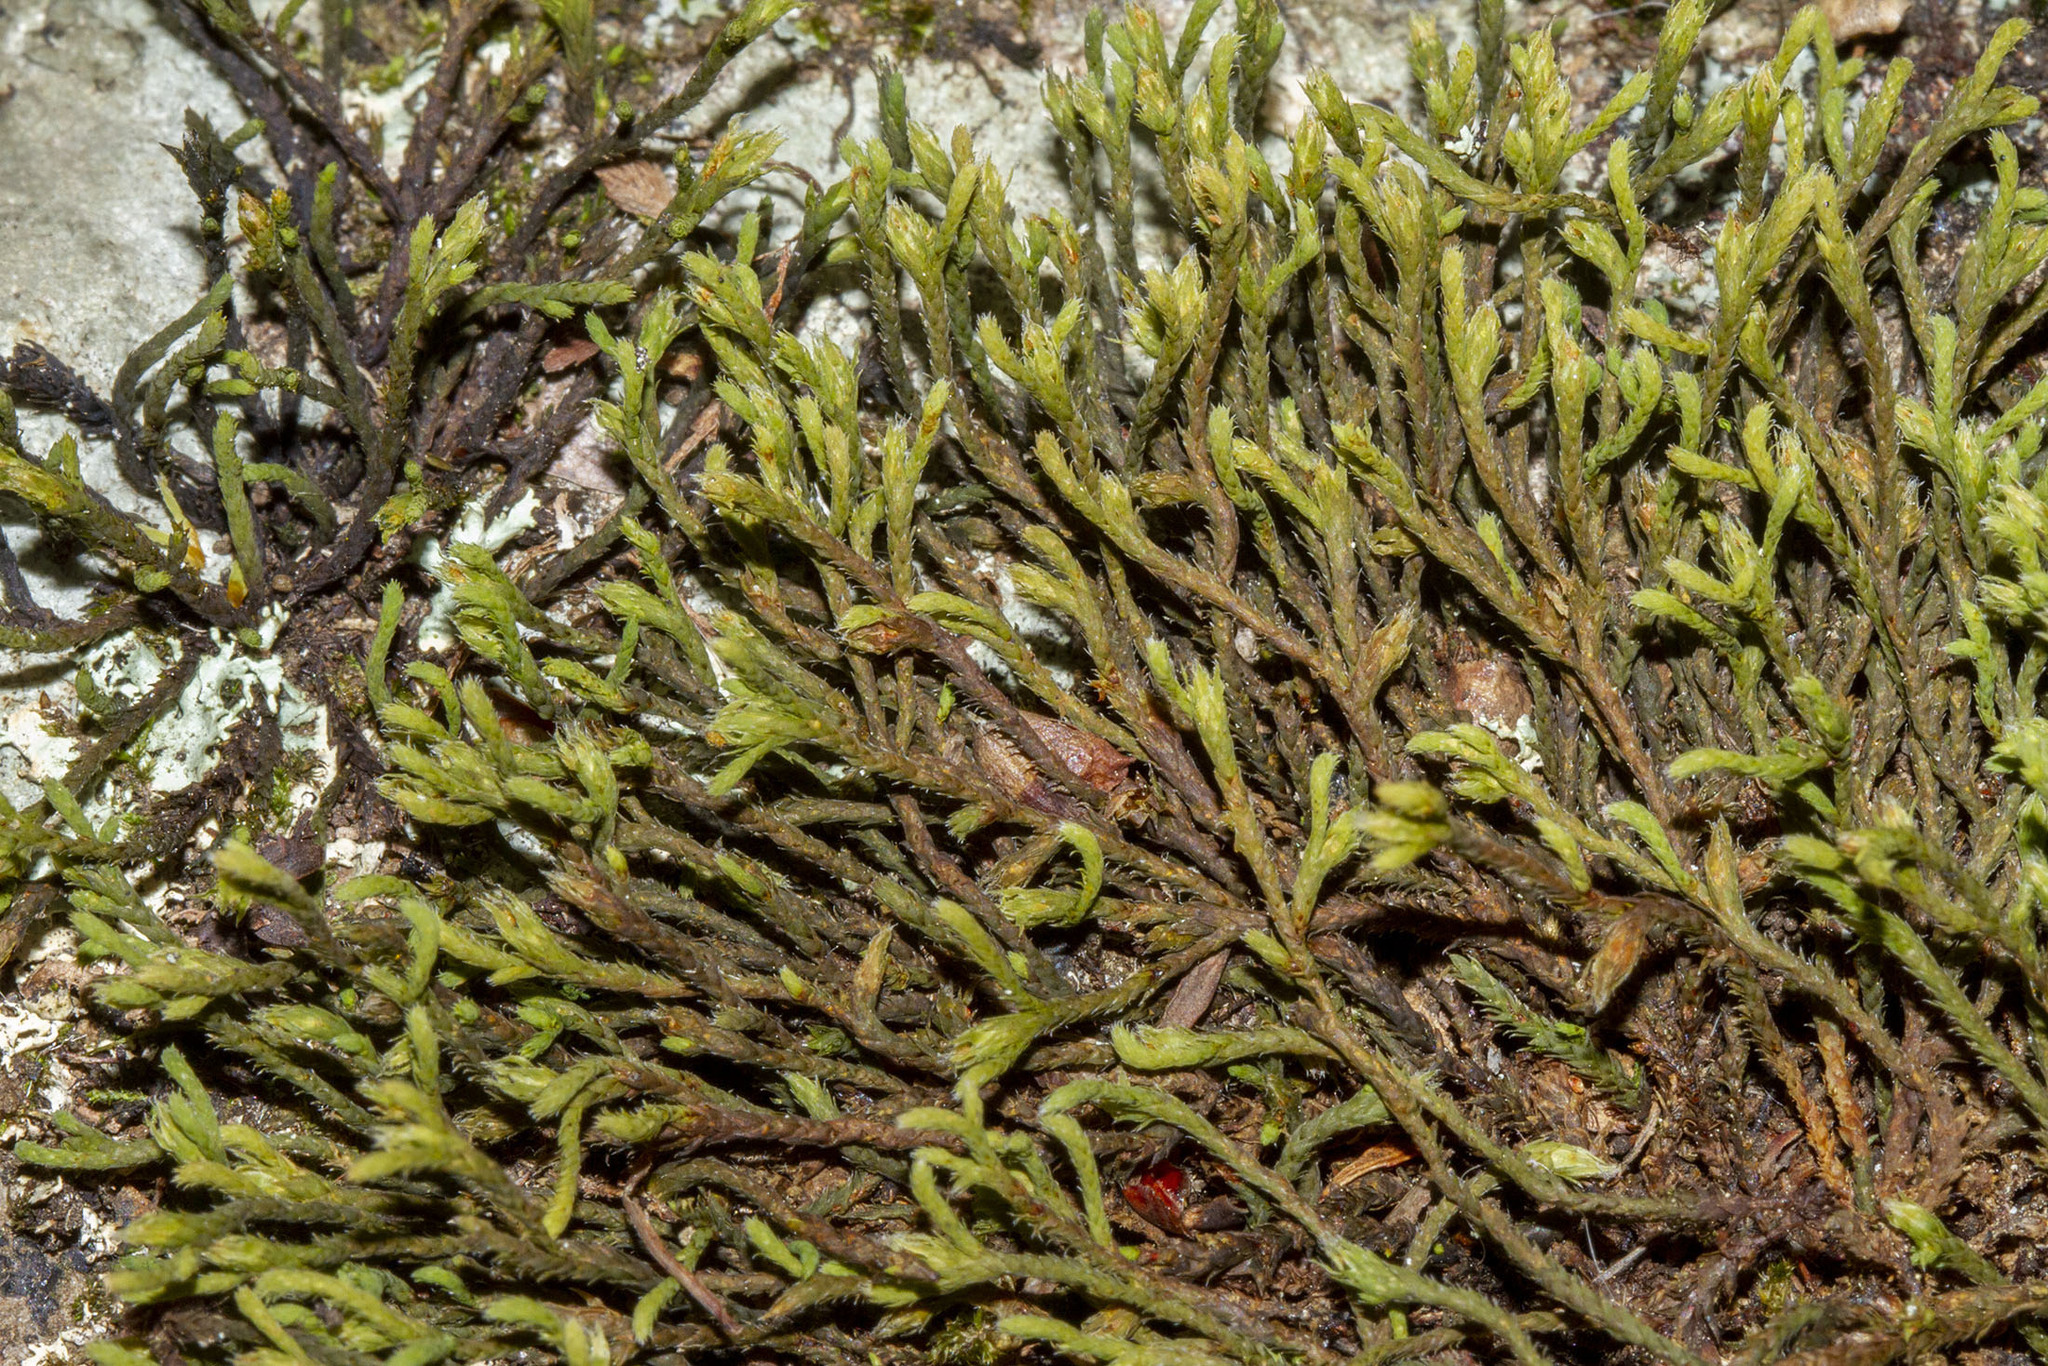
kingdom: Plantae
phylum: Bryophyta
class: Bryopsida
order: Hedwigiales
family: Hedwigiaceae
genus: Hedwigia
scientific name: Hedwigia ciliata
